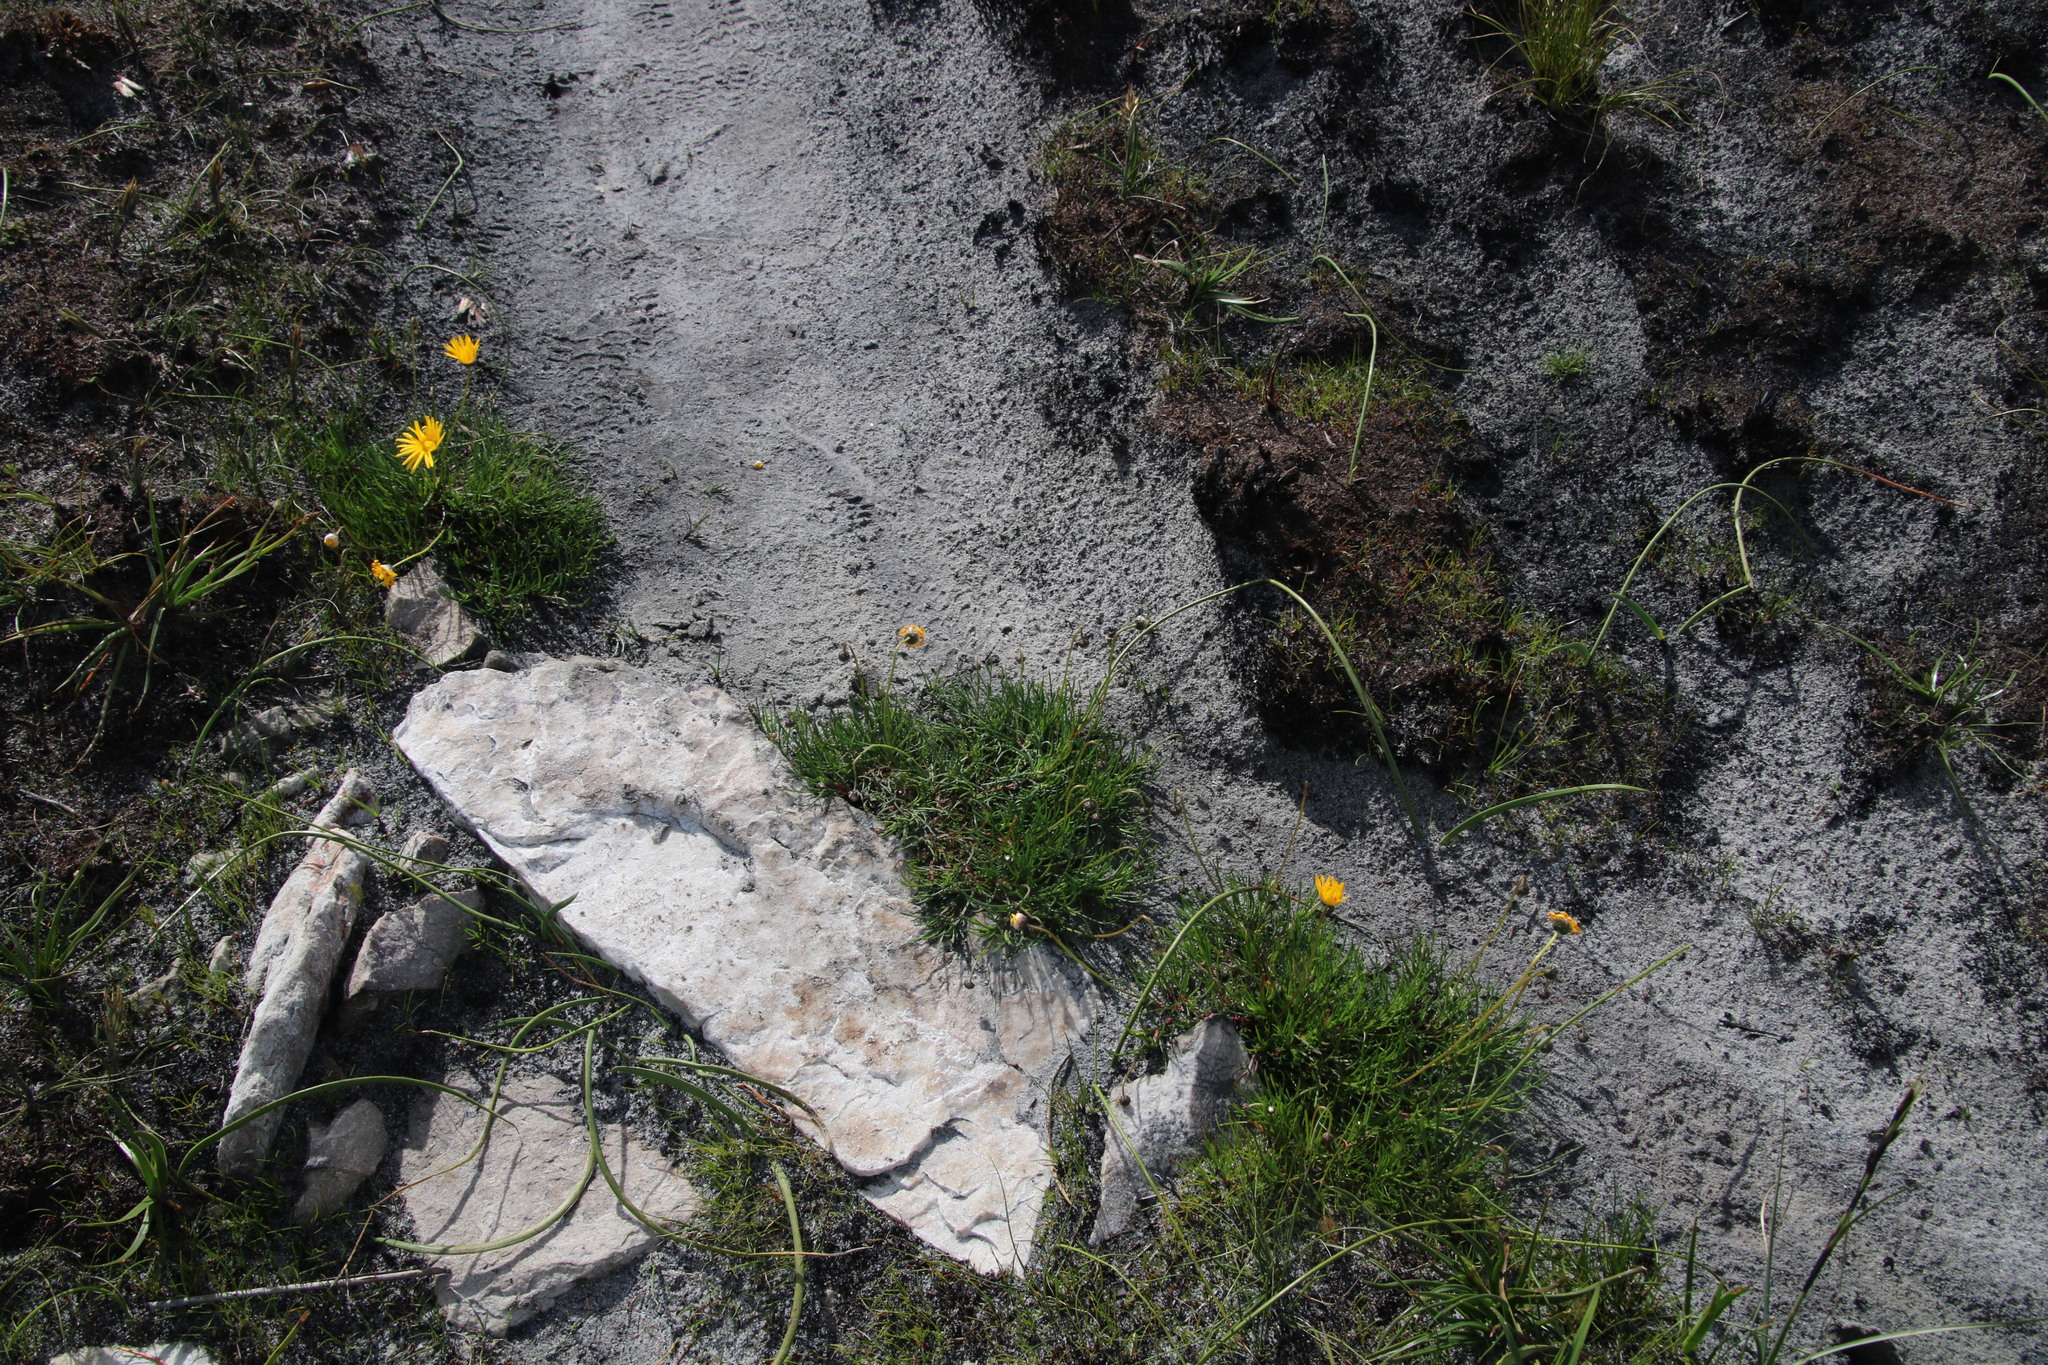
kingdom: Plantae
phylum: Tracheophyta
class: Magnoliopsida
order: Asterales
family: Asteraceae
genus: Ursinia
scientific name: Ursinia tenuifolia
